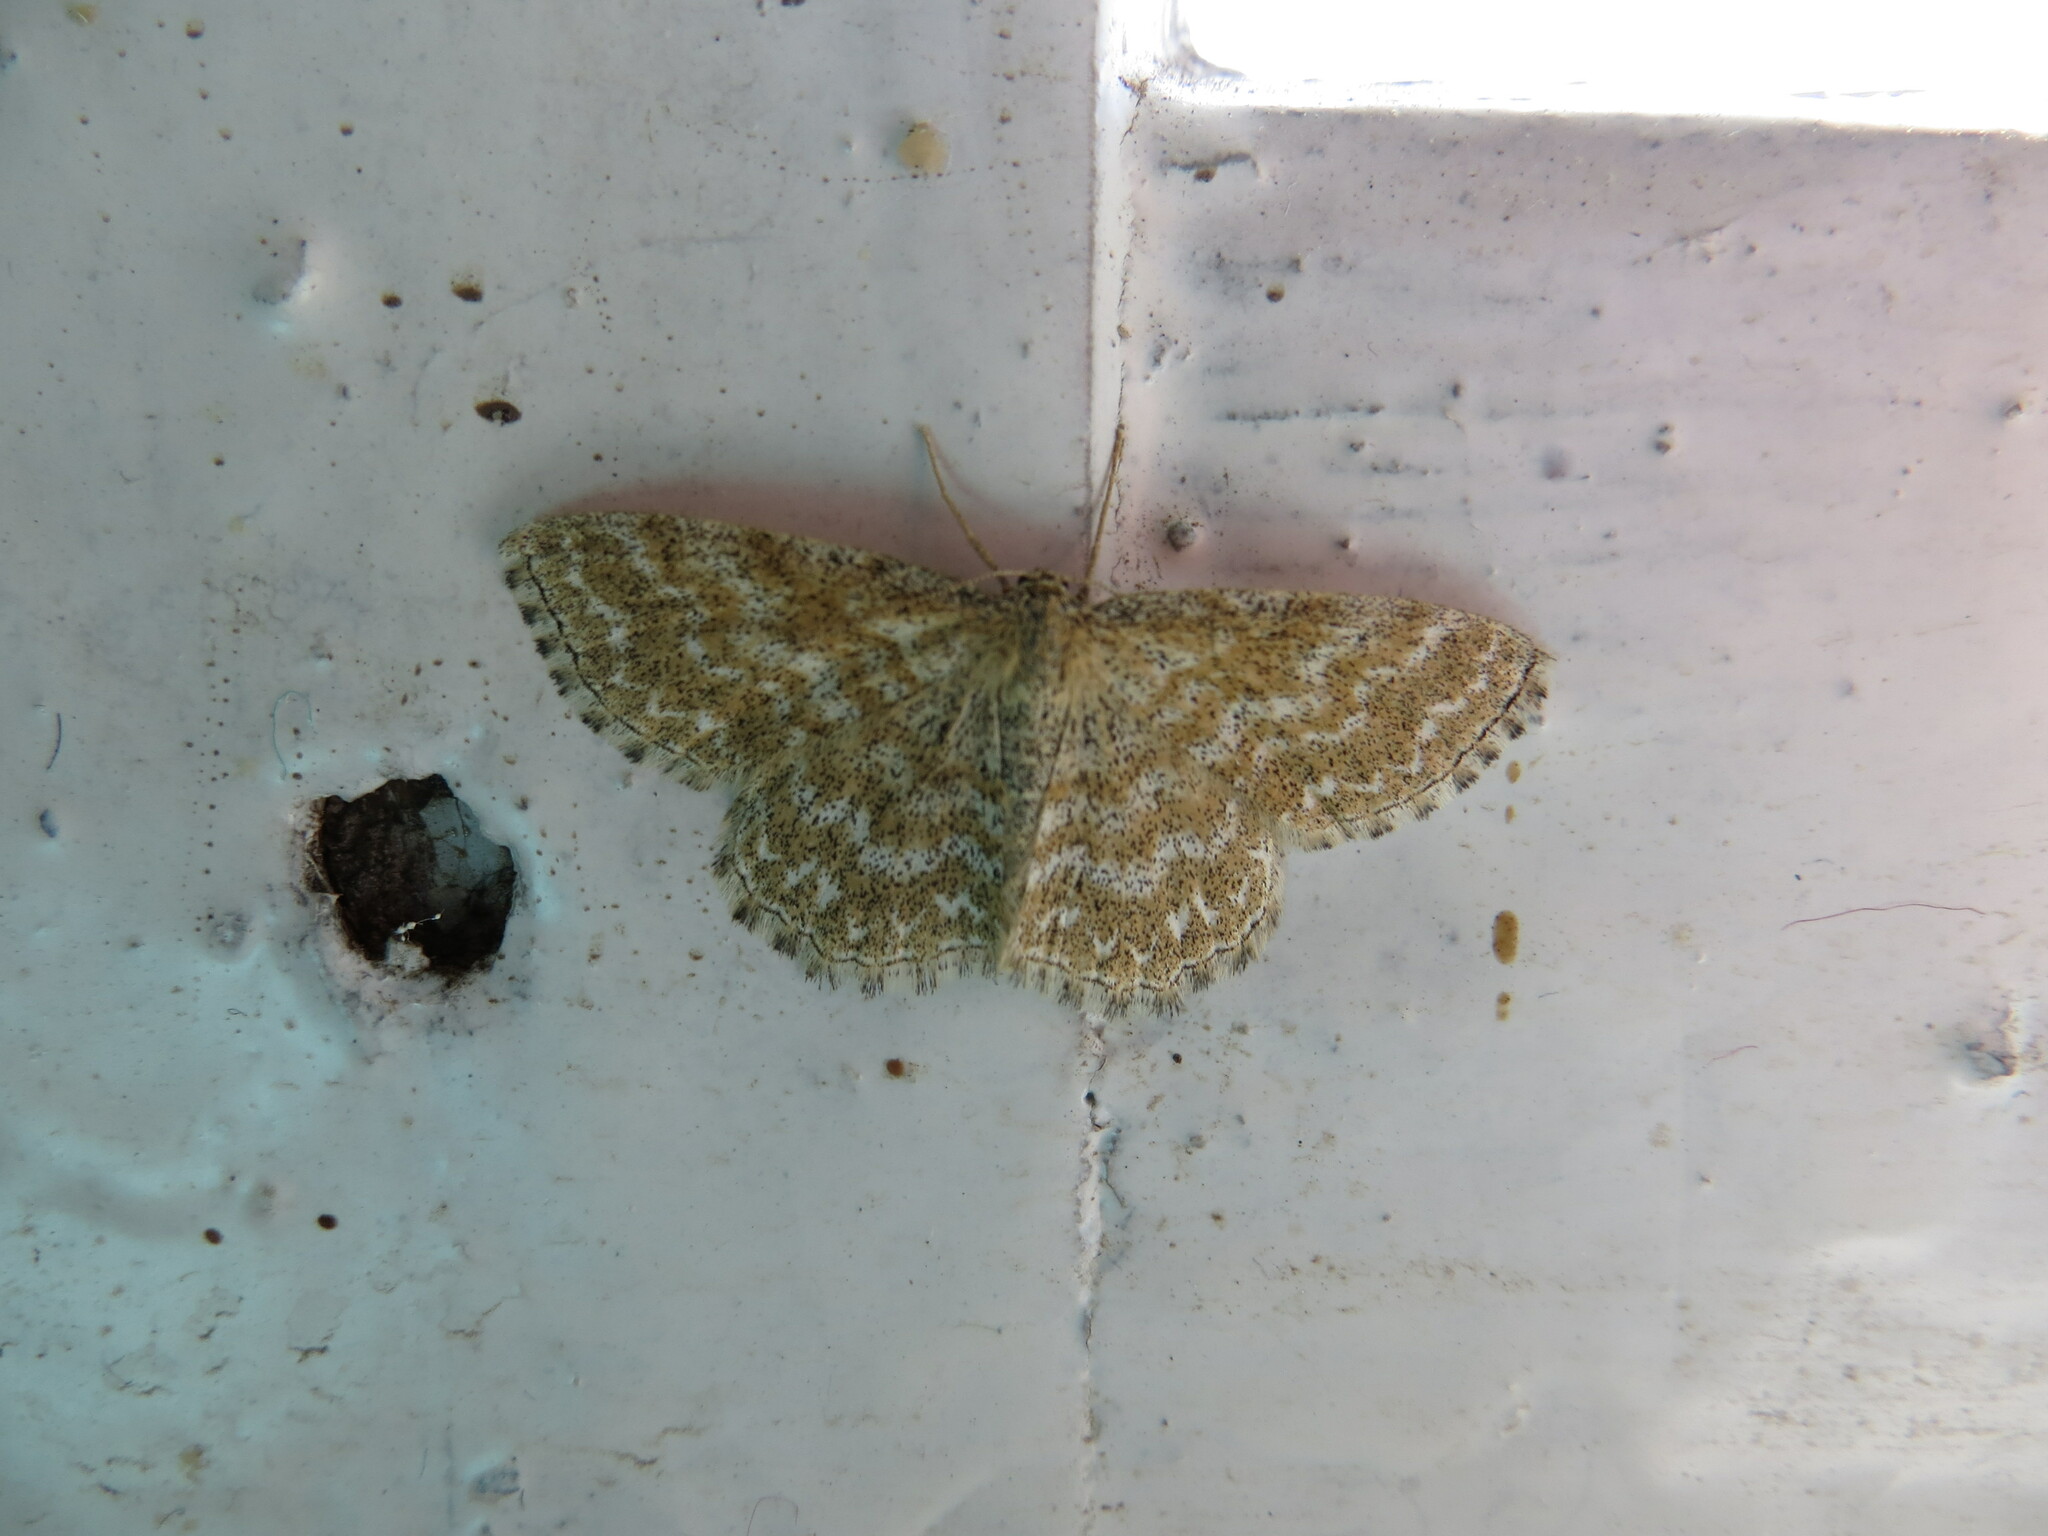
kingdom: Animalia
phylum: Arthropoda
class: Insecta
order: Lepidoptera
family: Geometridae
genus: Scopula
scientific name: Scopula immorata
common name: Lewes wave
